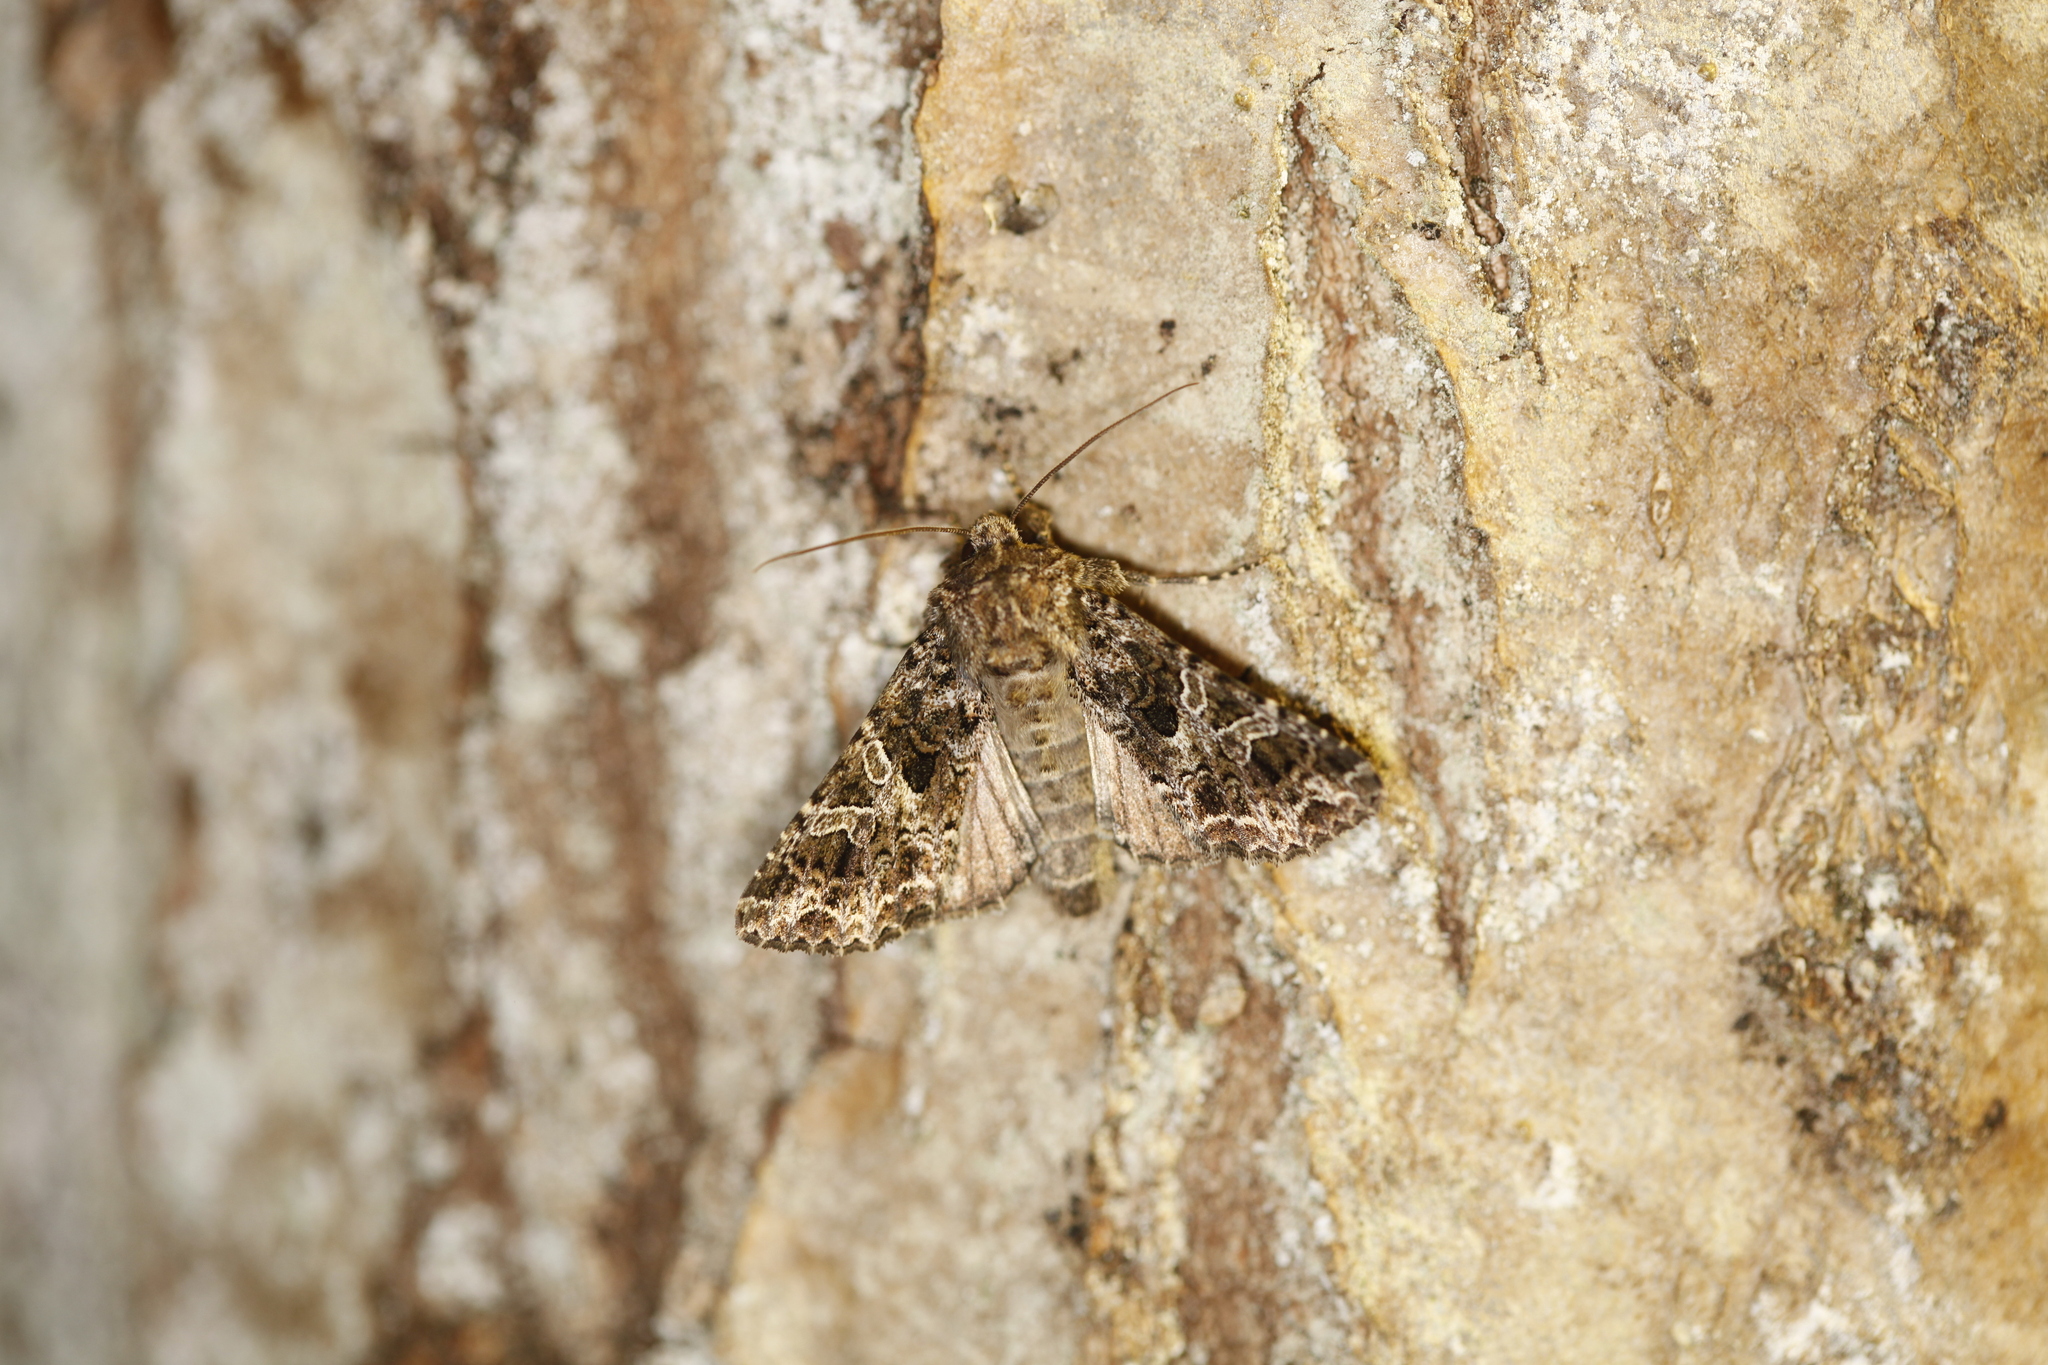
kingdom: Animalia
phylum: Arthropoda
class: Insecta
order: Lepidoptera
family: Noctuidae
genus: Hadena
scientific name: Hadena bicruris
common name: Lychnis
